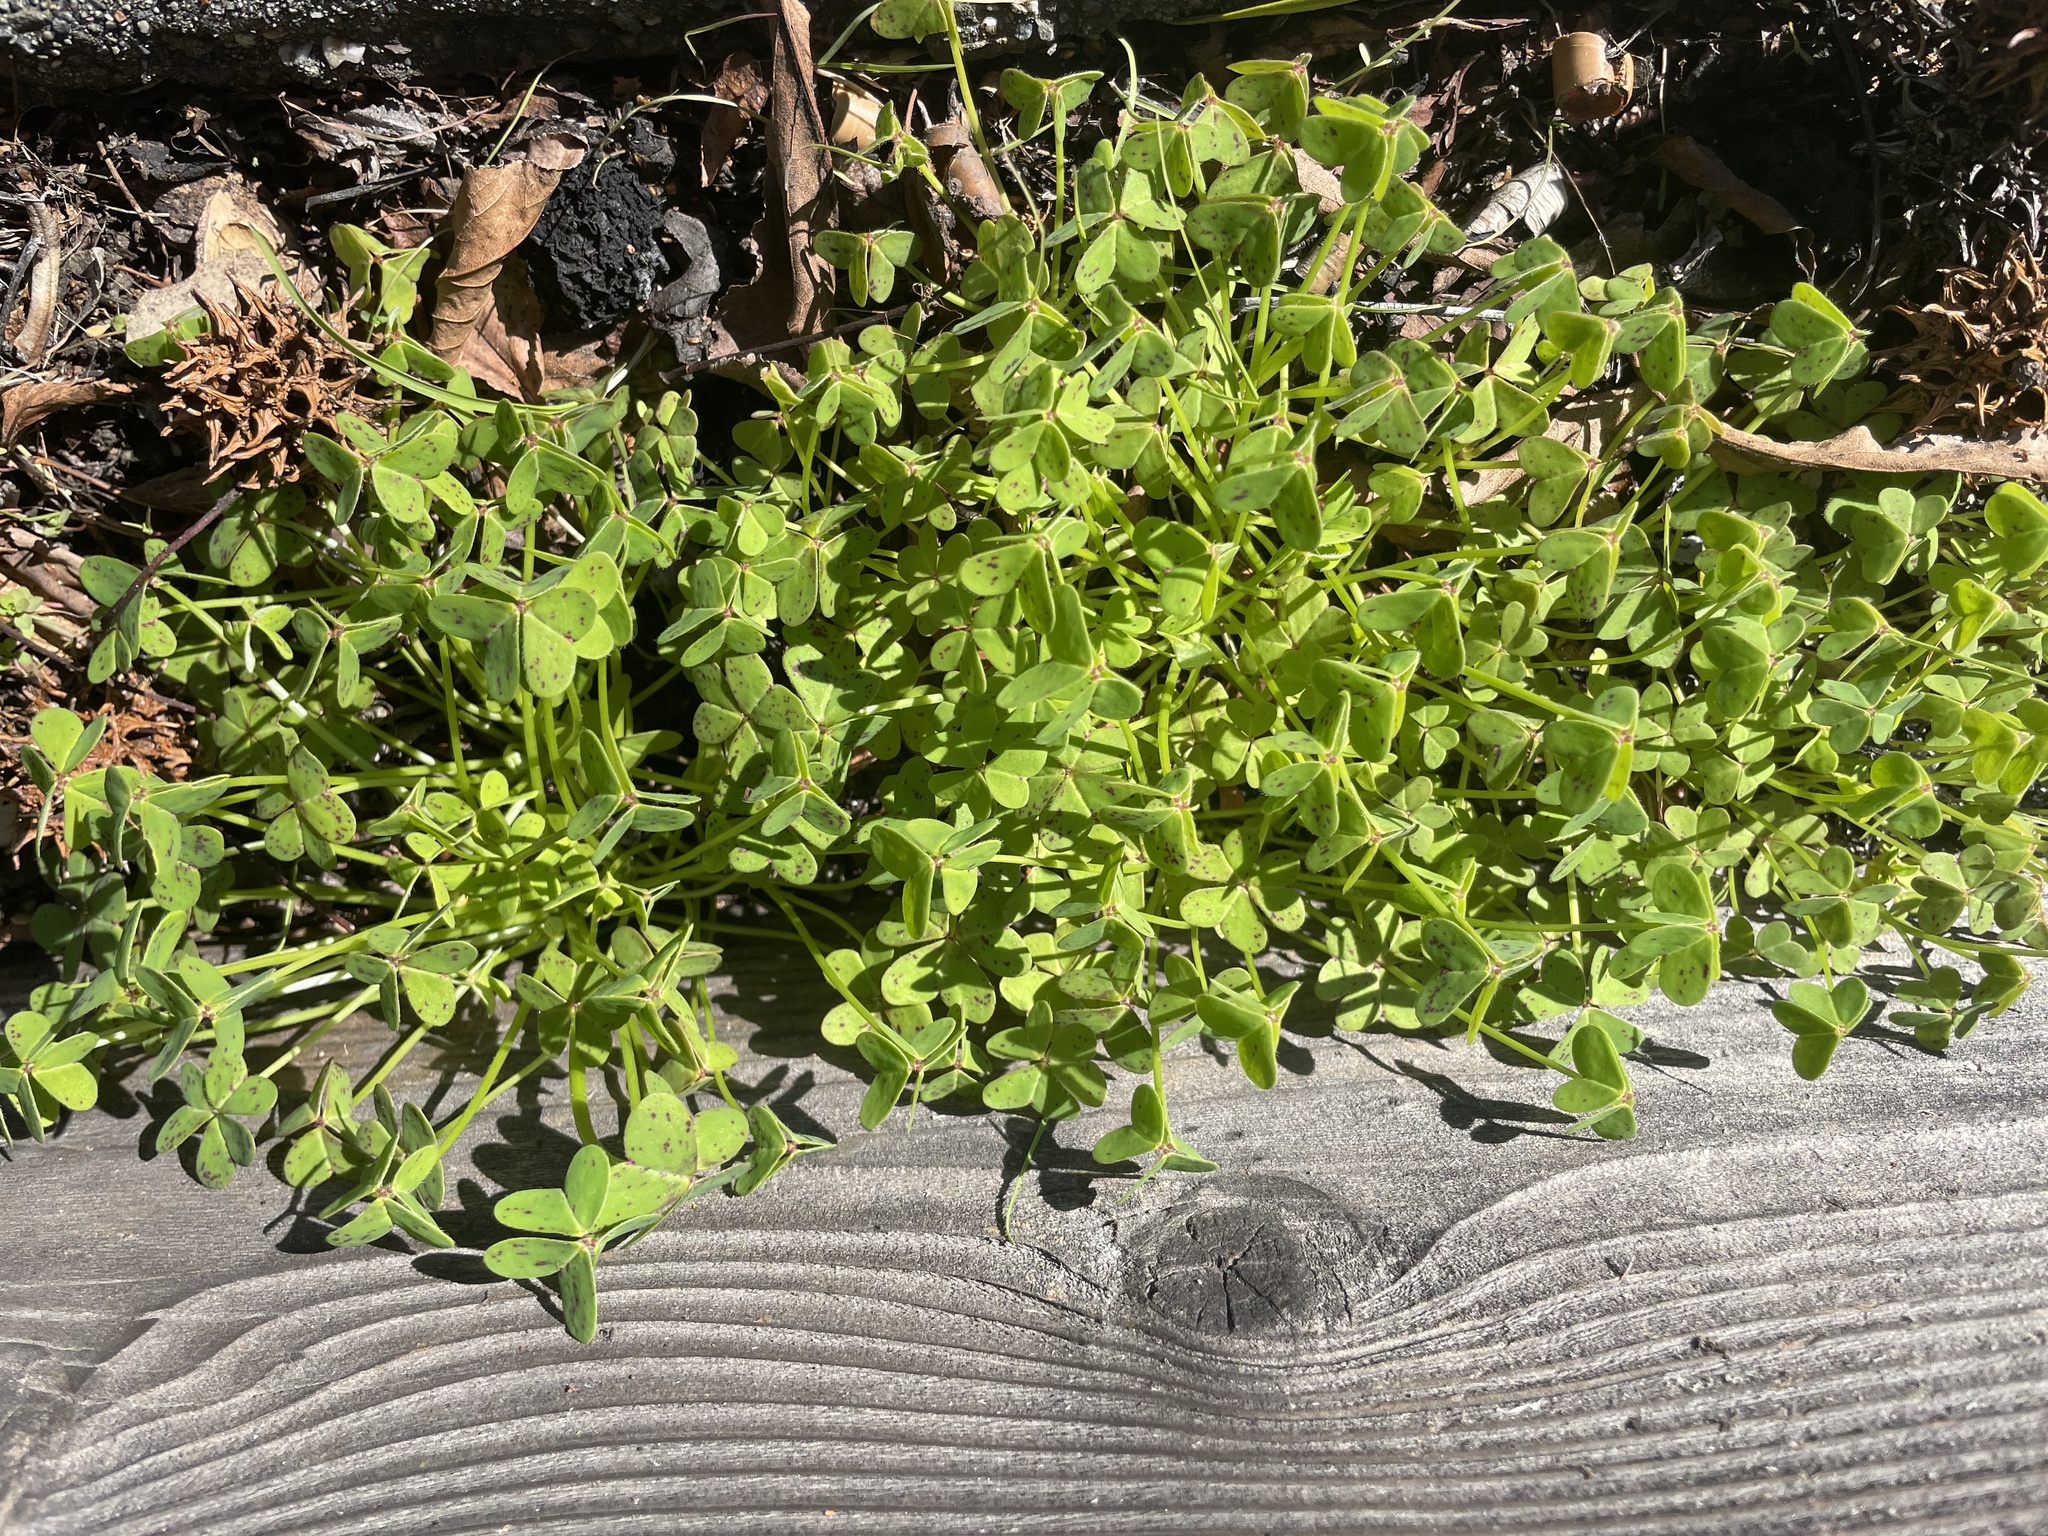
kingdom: Plantae
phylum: Tracheophyta
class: Magnoliopsida
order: Oxalidales
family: Oxalidaceae
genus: Oxalis
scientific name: Oxalis pes-caprae
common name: Bermuda-buttercup
